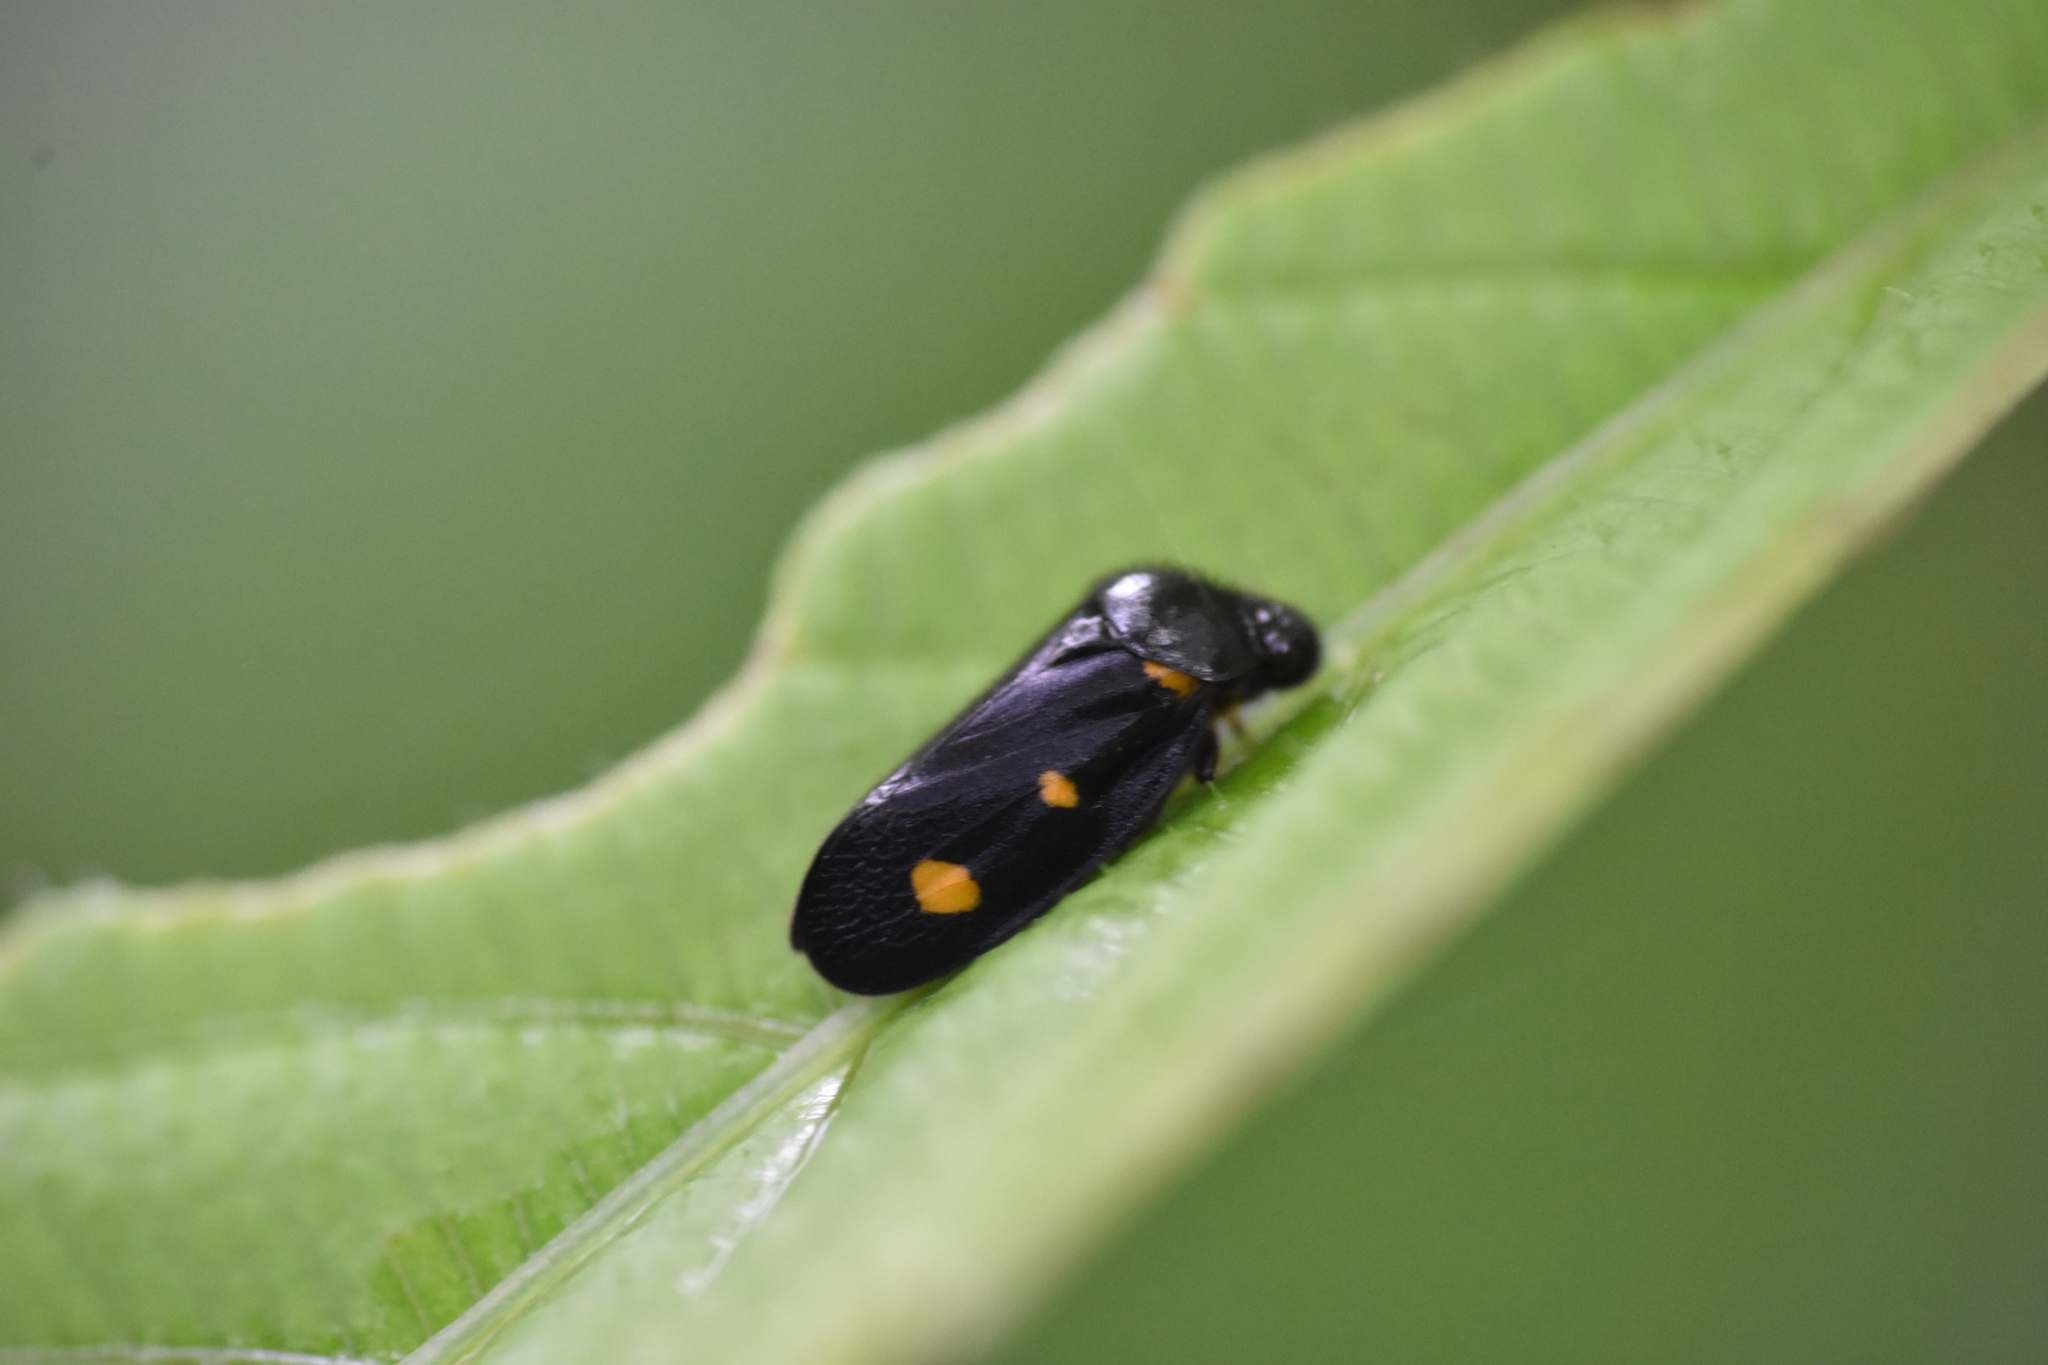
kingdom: Animalia
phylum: Arthropoda
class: Insecta
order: Hemiptera
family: Cercopidae
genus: Cosmoscarta
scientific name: Cosmoscarta trimacula
